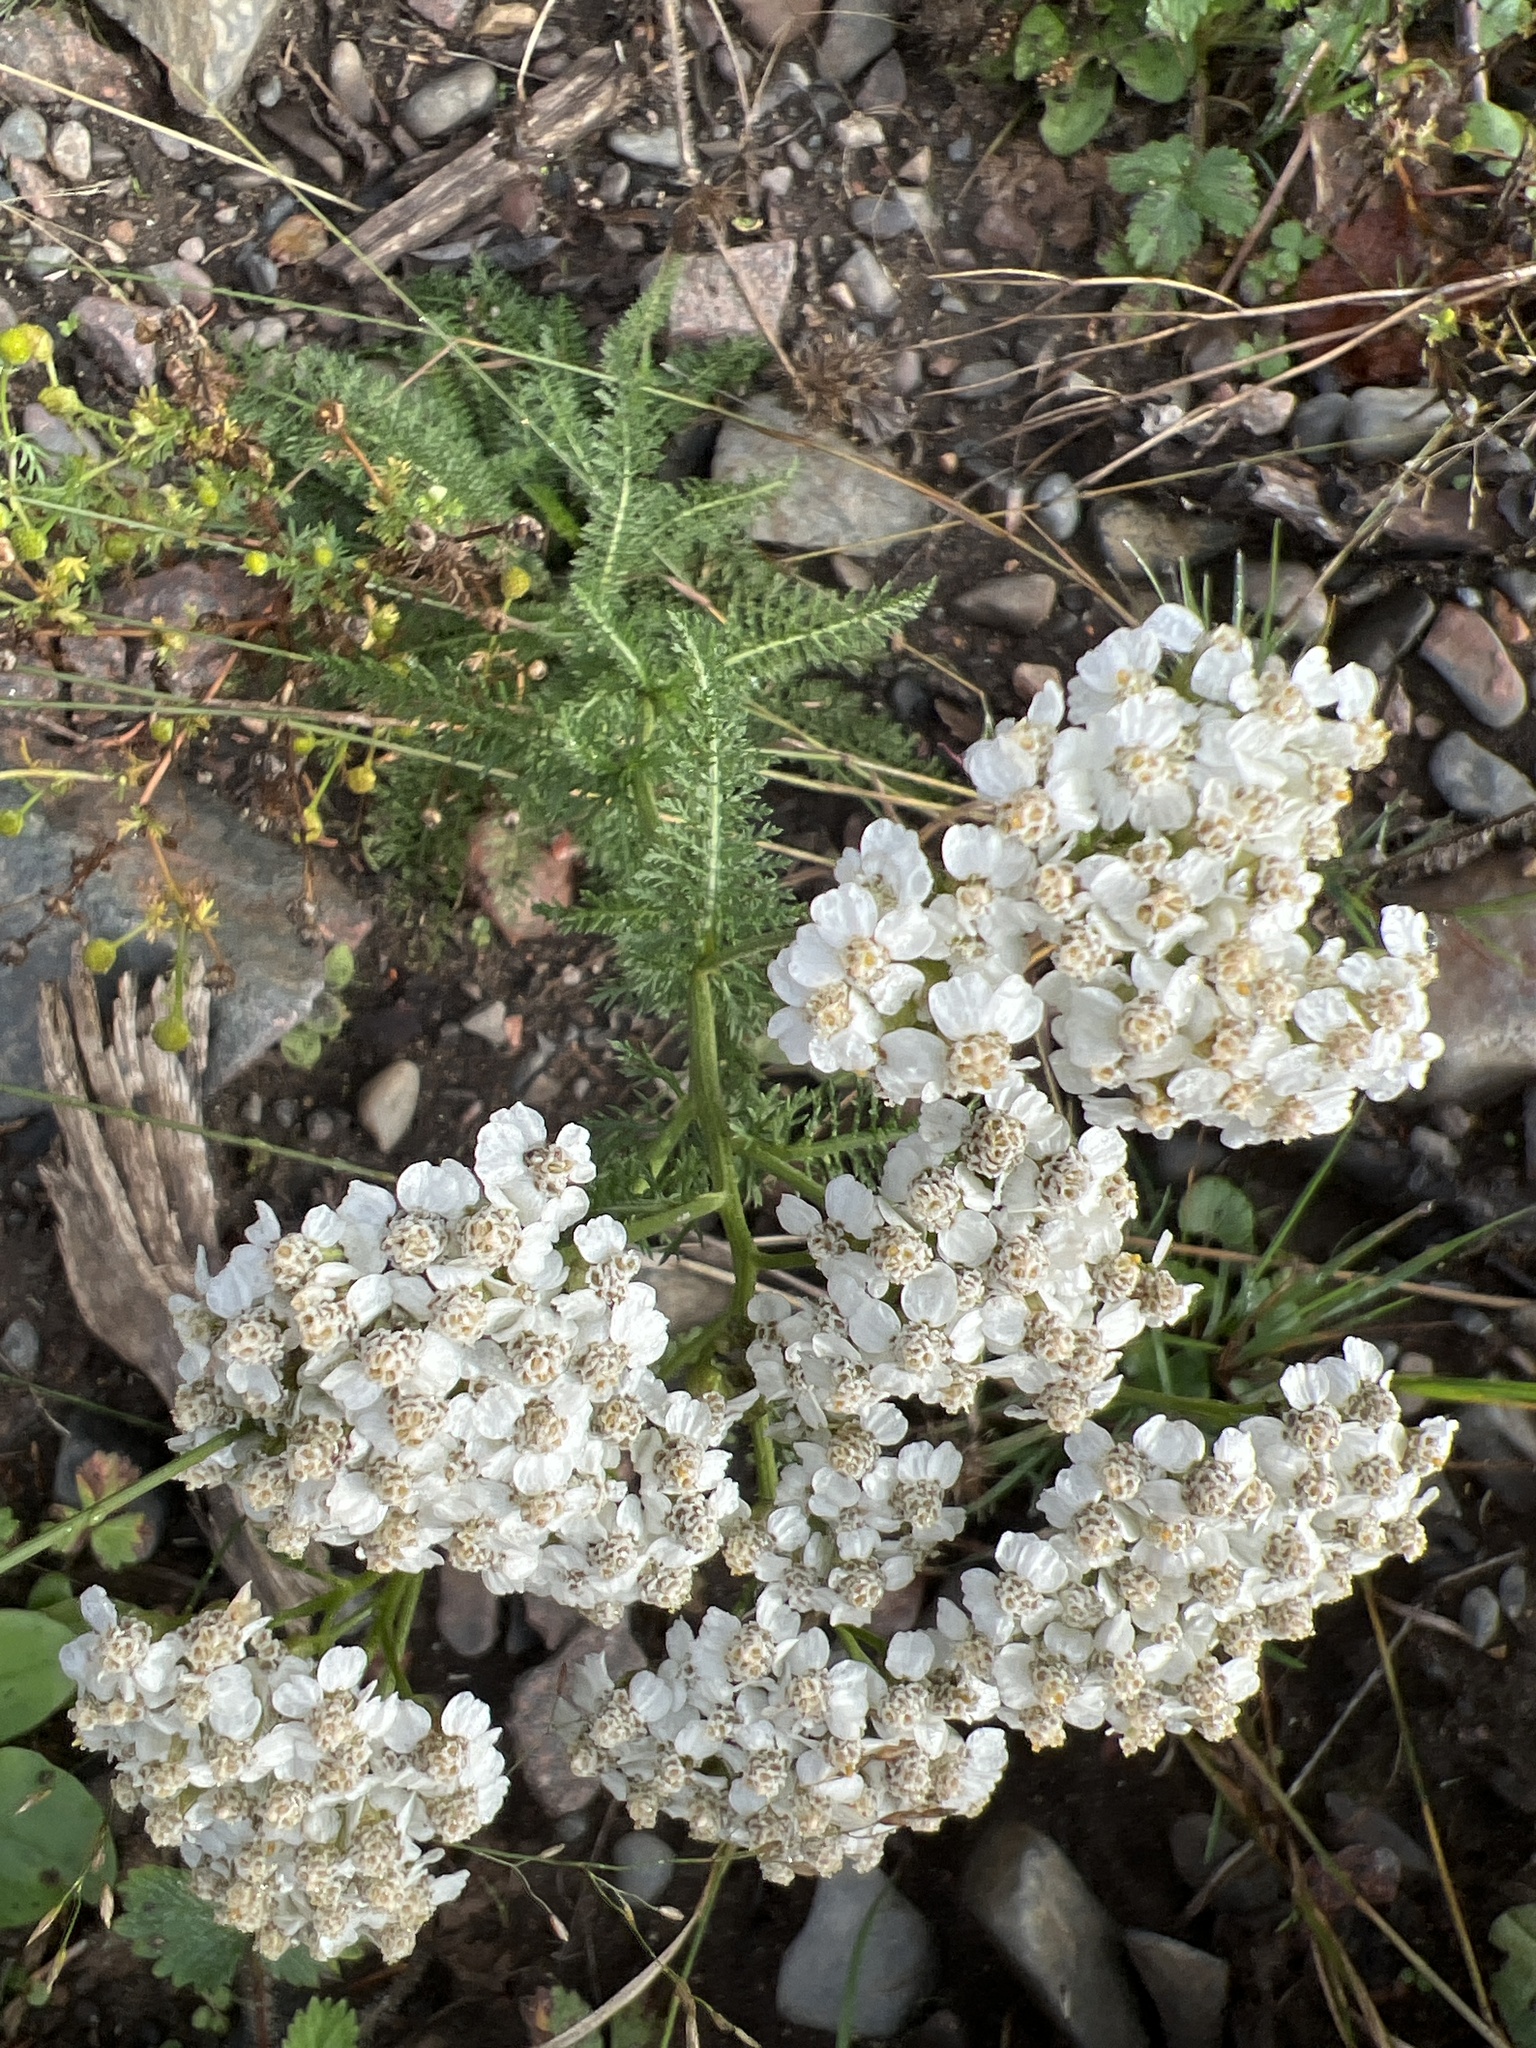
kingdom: Plantae
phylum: Tracheophyta
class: Magnoliopsida
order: Asterales
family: Asteraceae
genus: Achillea
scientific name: Achillea millefolium
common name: Yarrow
